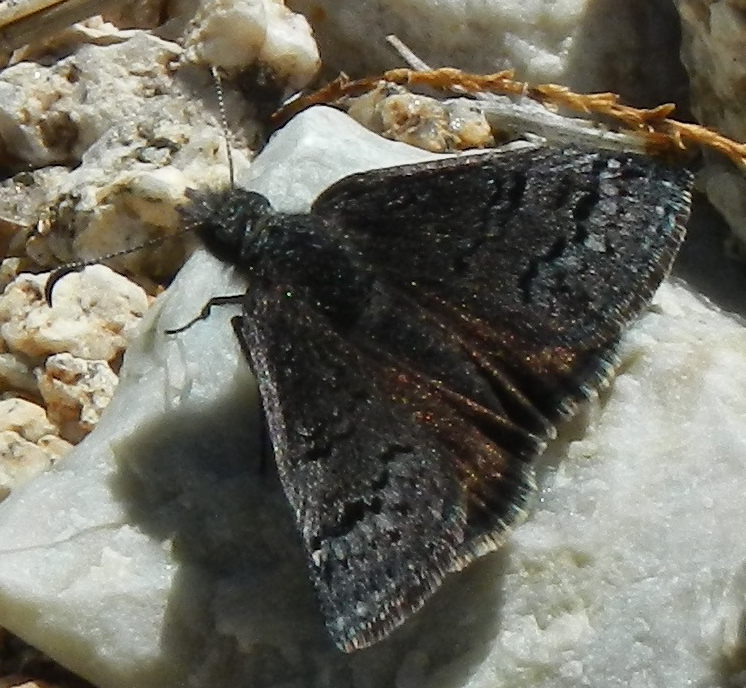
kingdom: Animalia
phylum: Arthropoda
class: Insecta
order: Lepidoptera
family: Hesperiidae
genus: Erynnis
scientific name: Erynnis brizo
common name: Sleepy duskywing
